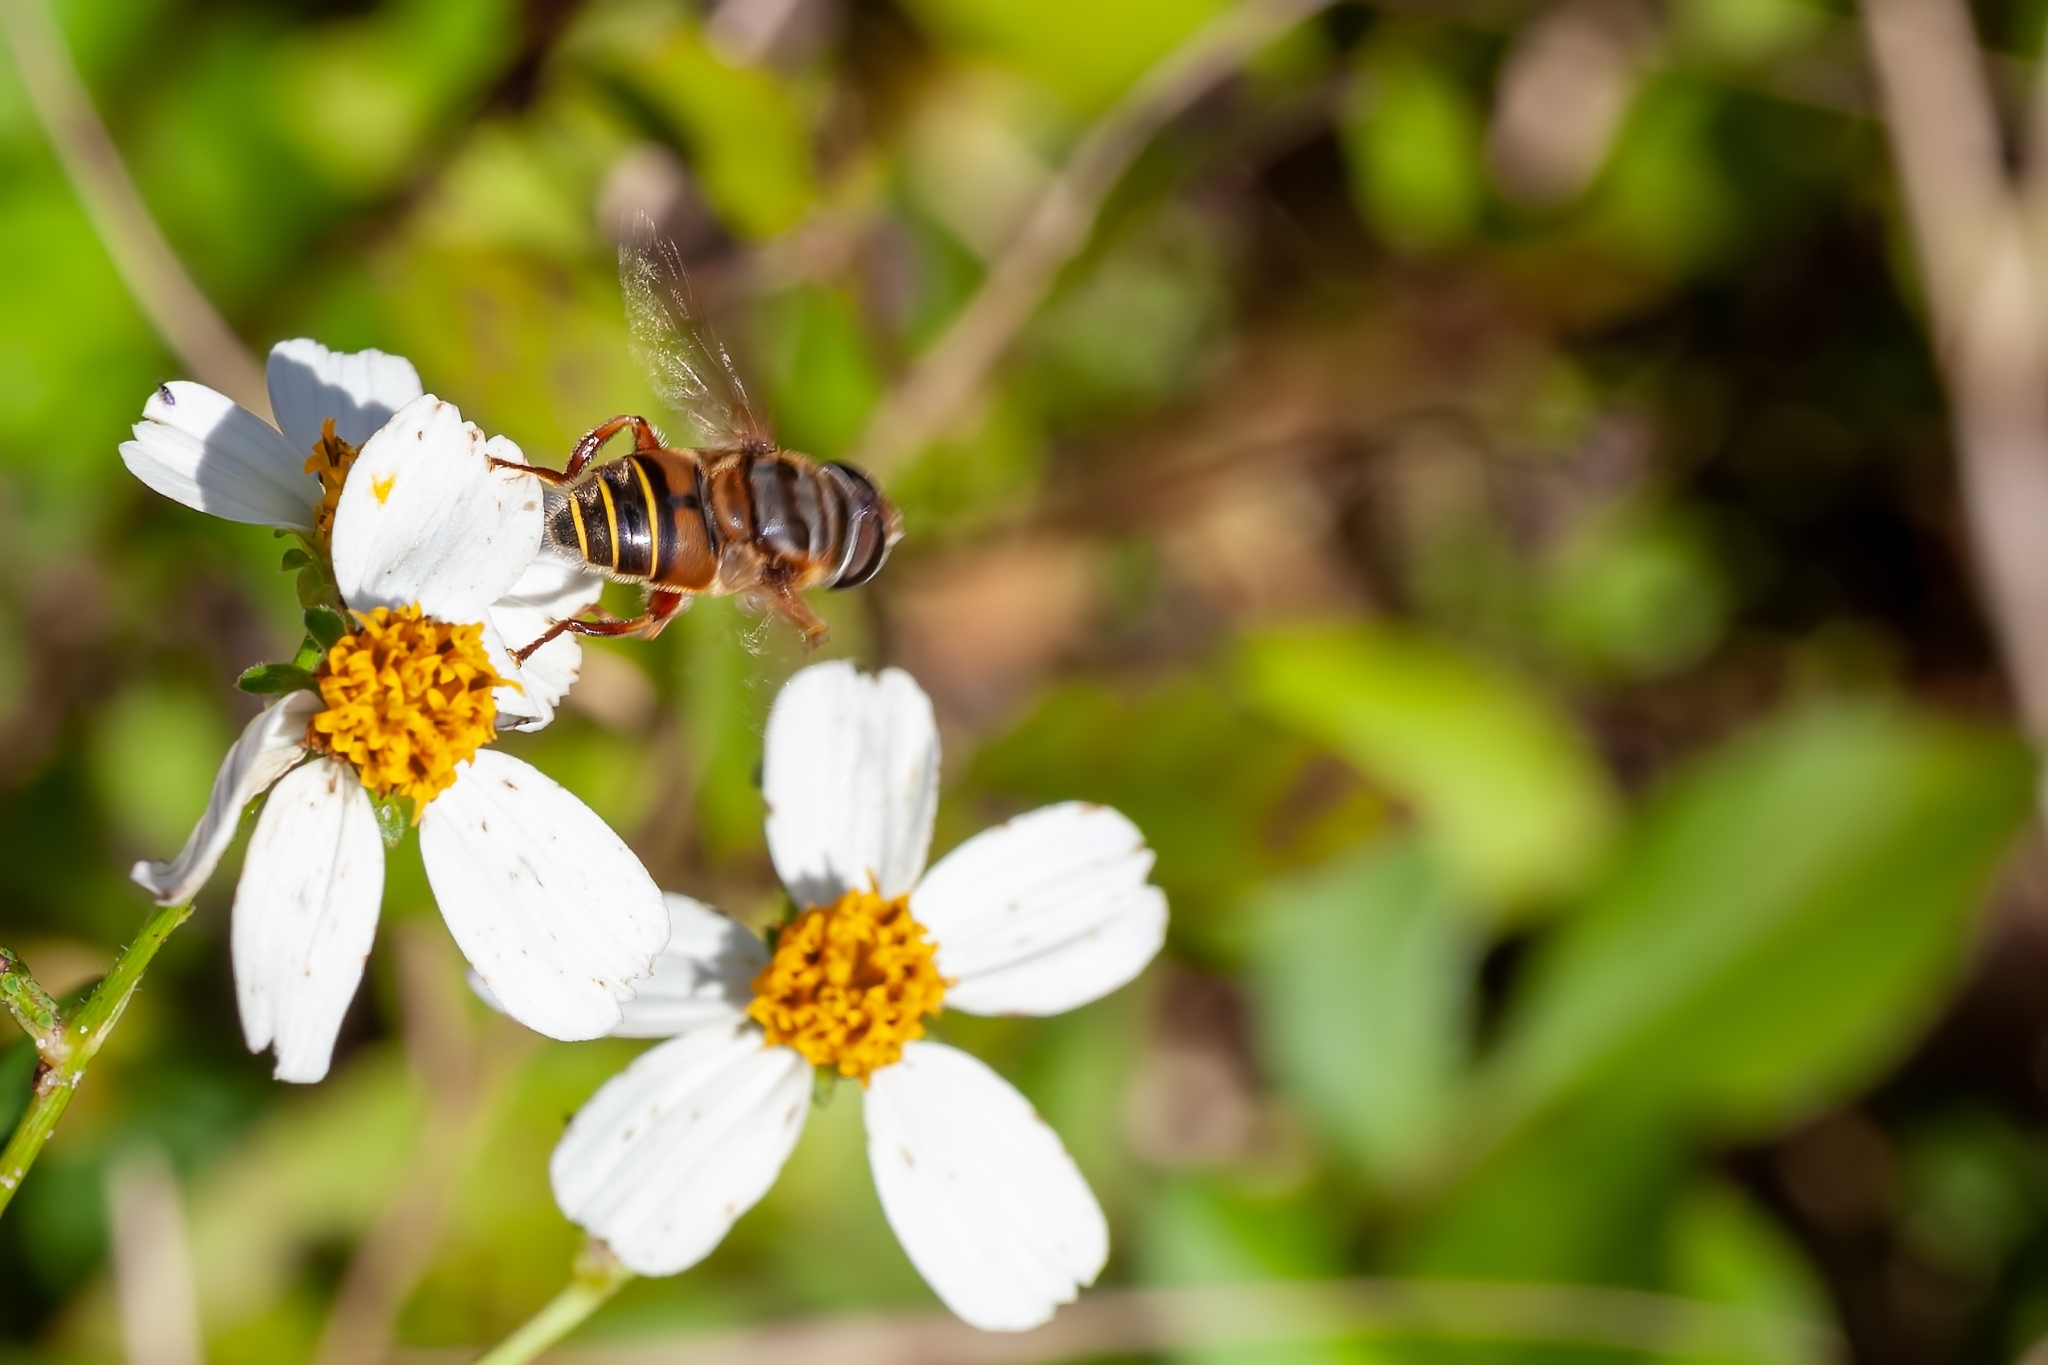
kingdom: Animalia
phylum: Arthropoda
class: Insecta
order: Diptera
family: Syrphidae
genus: Palpada
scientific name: Palpada vinetorum
